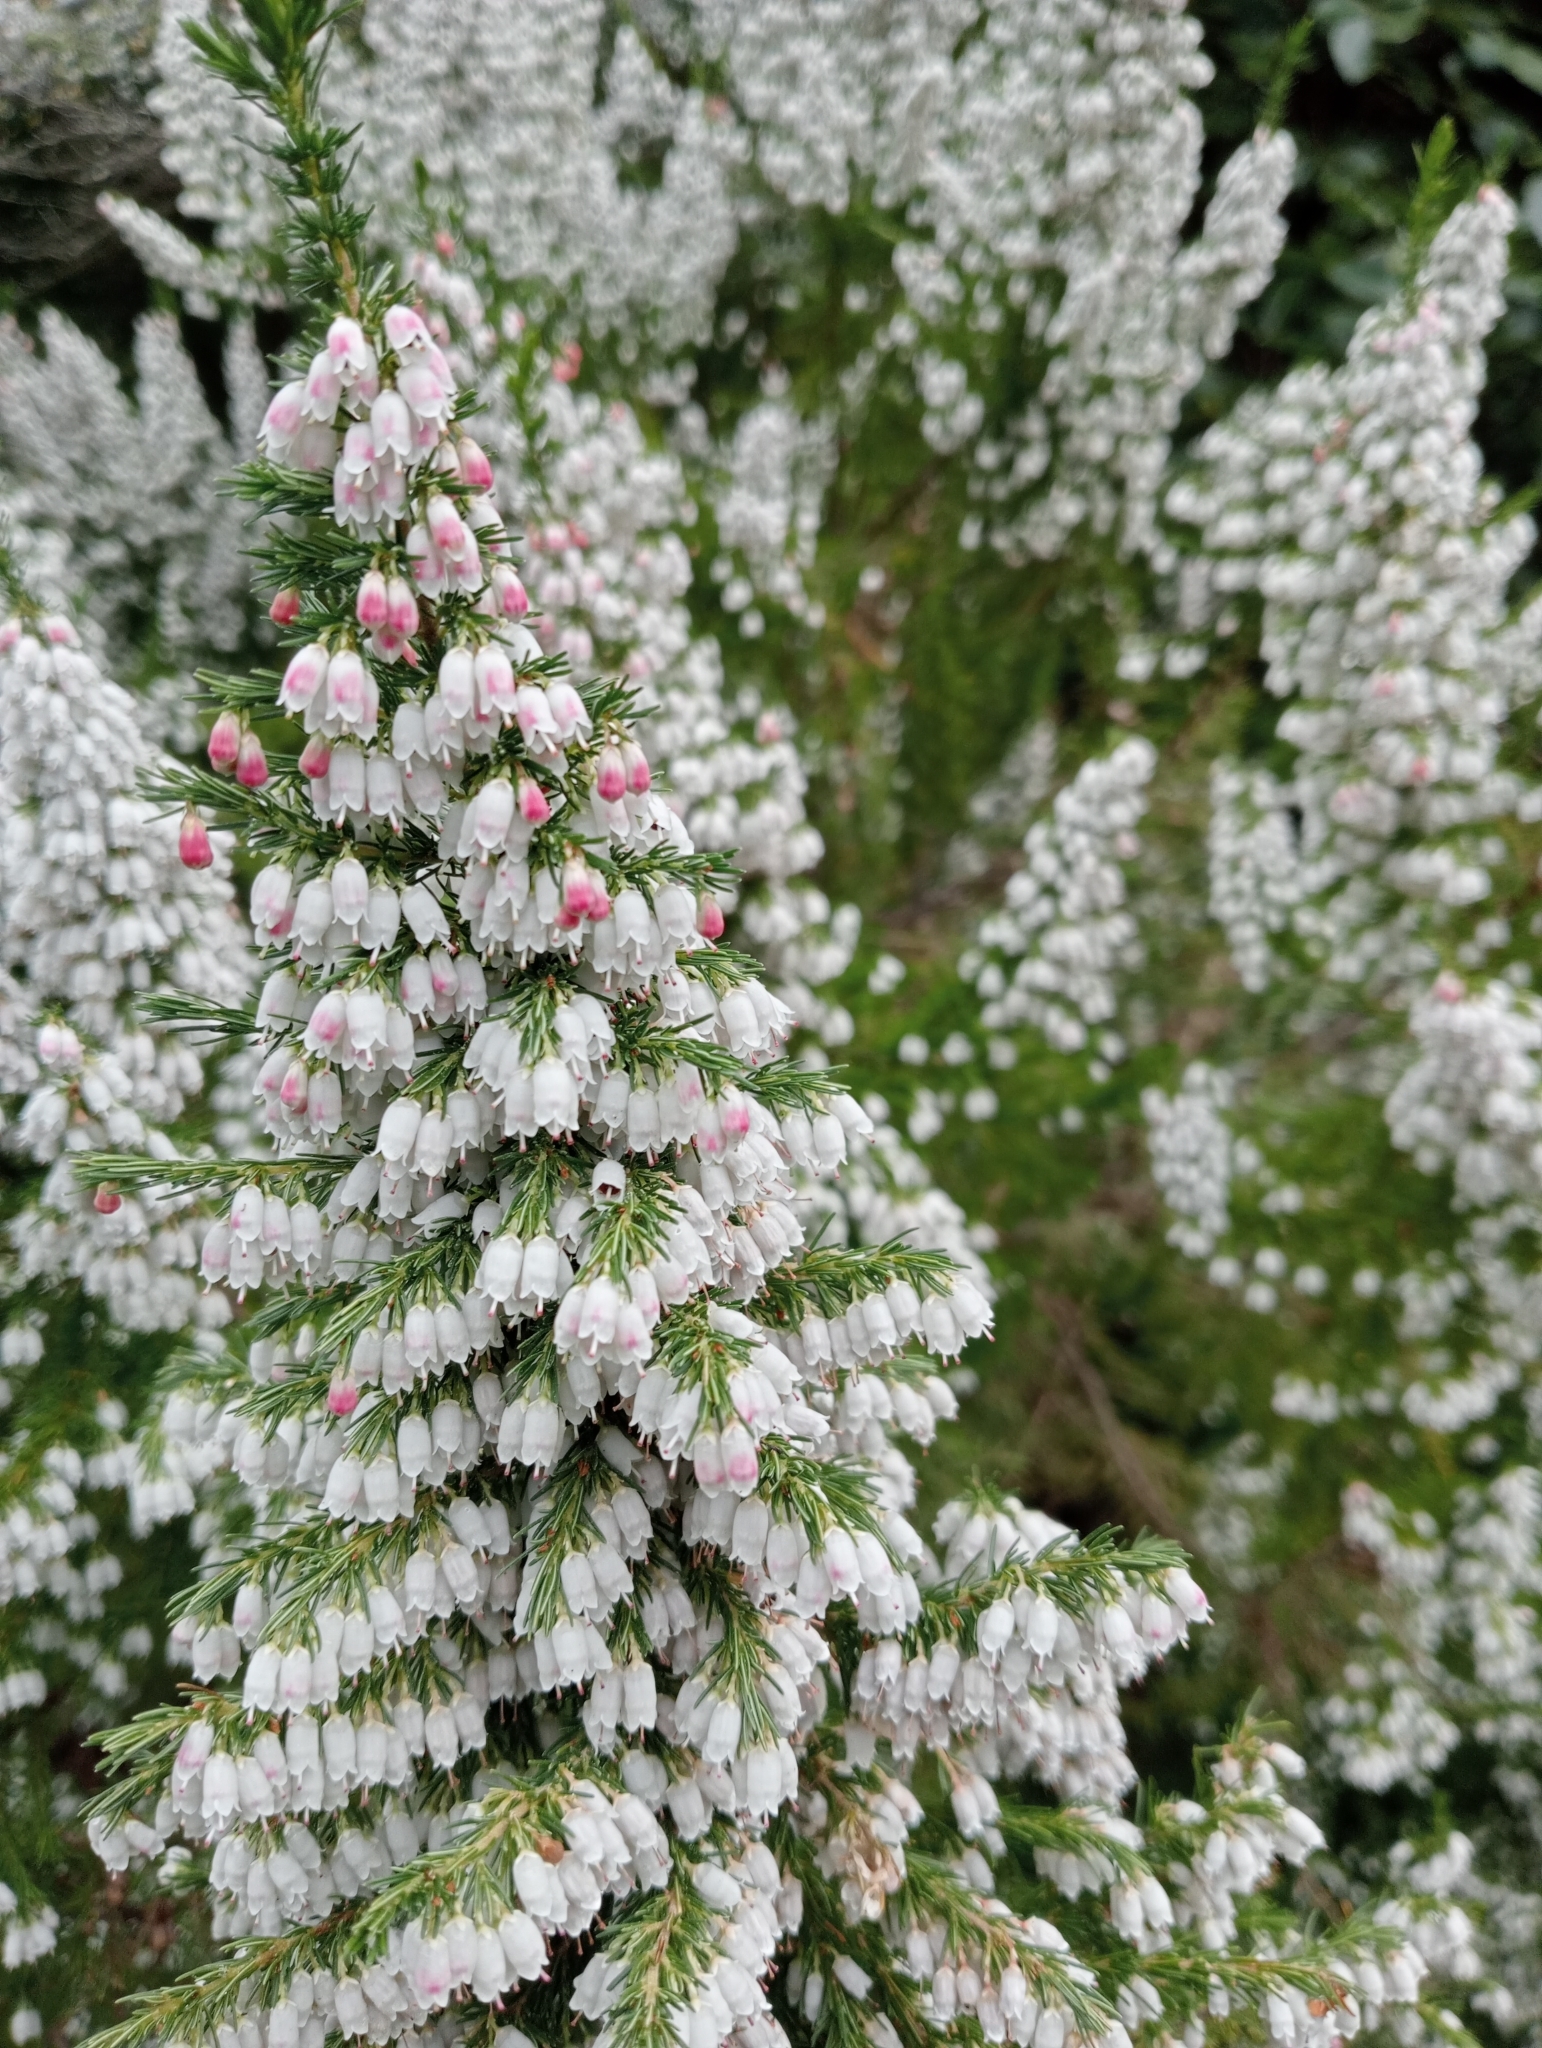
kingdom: Plantae
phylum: Tracheophyta
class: Magnoliopsida
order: Ericales
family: Ericaceae
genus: Erica
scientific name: Erica lusitanica
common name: Spanish heath
